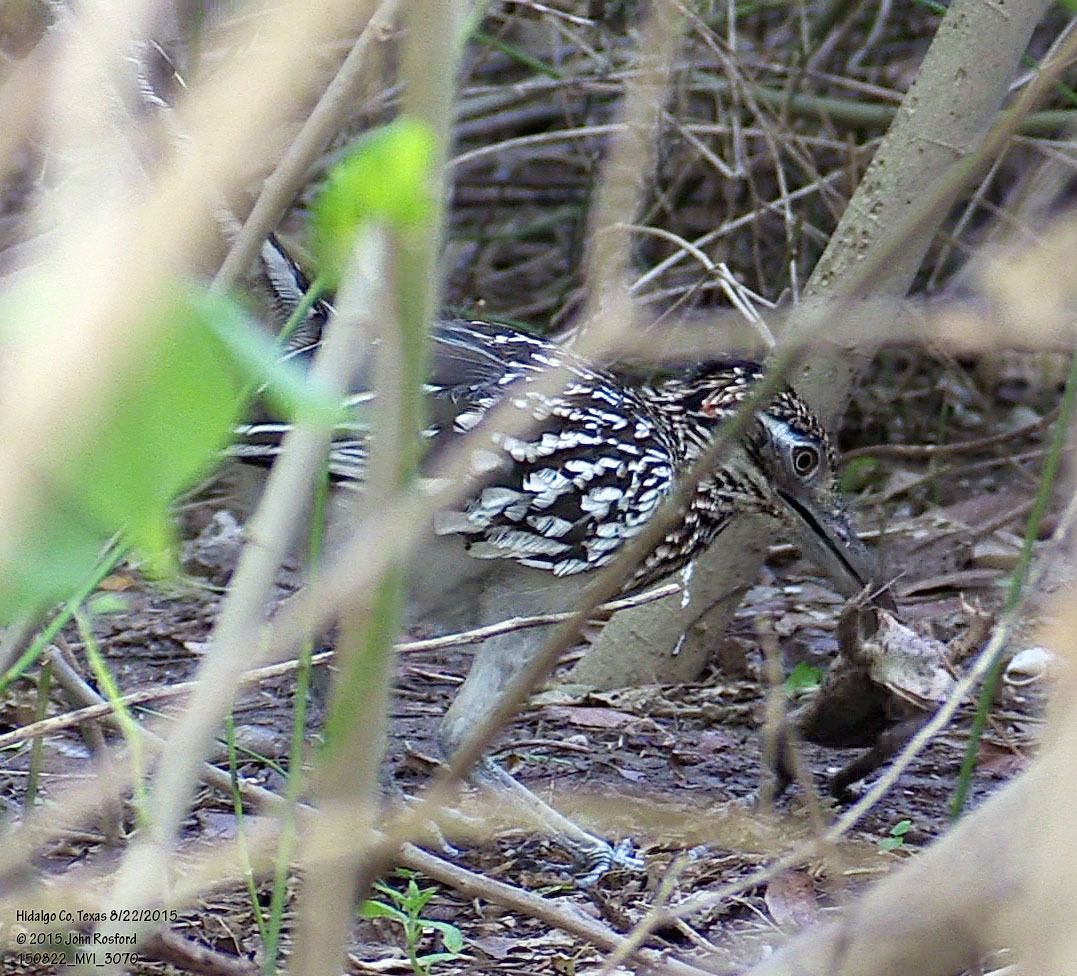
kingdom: Animalia
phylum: Chordata
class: Aves
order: Cuculiformes
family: Cuculidae
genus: Geococcyx
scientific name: Geococcyx californianus
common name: Greater roadrunner
